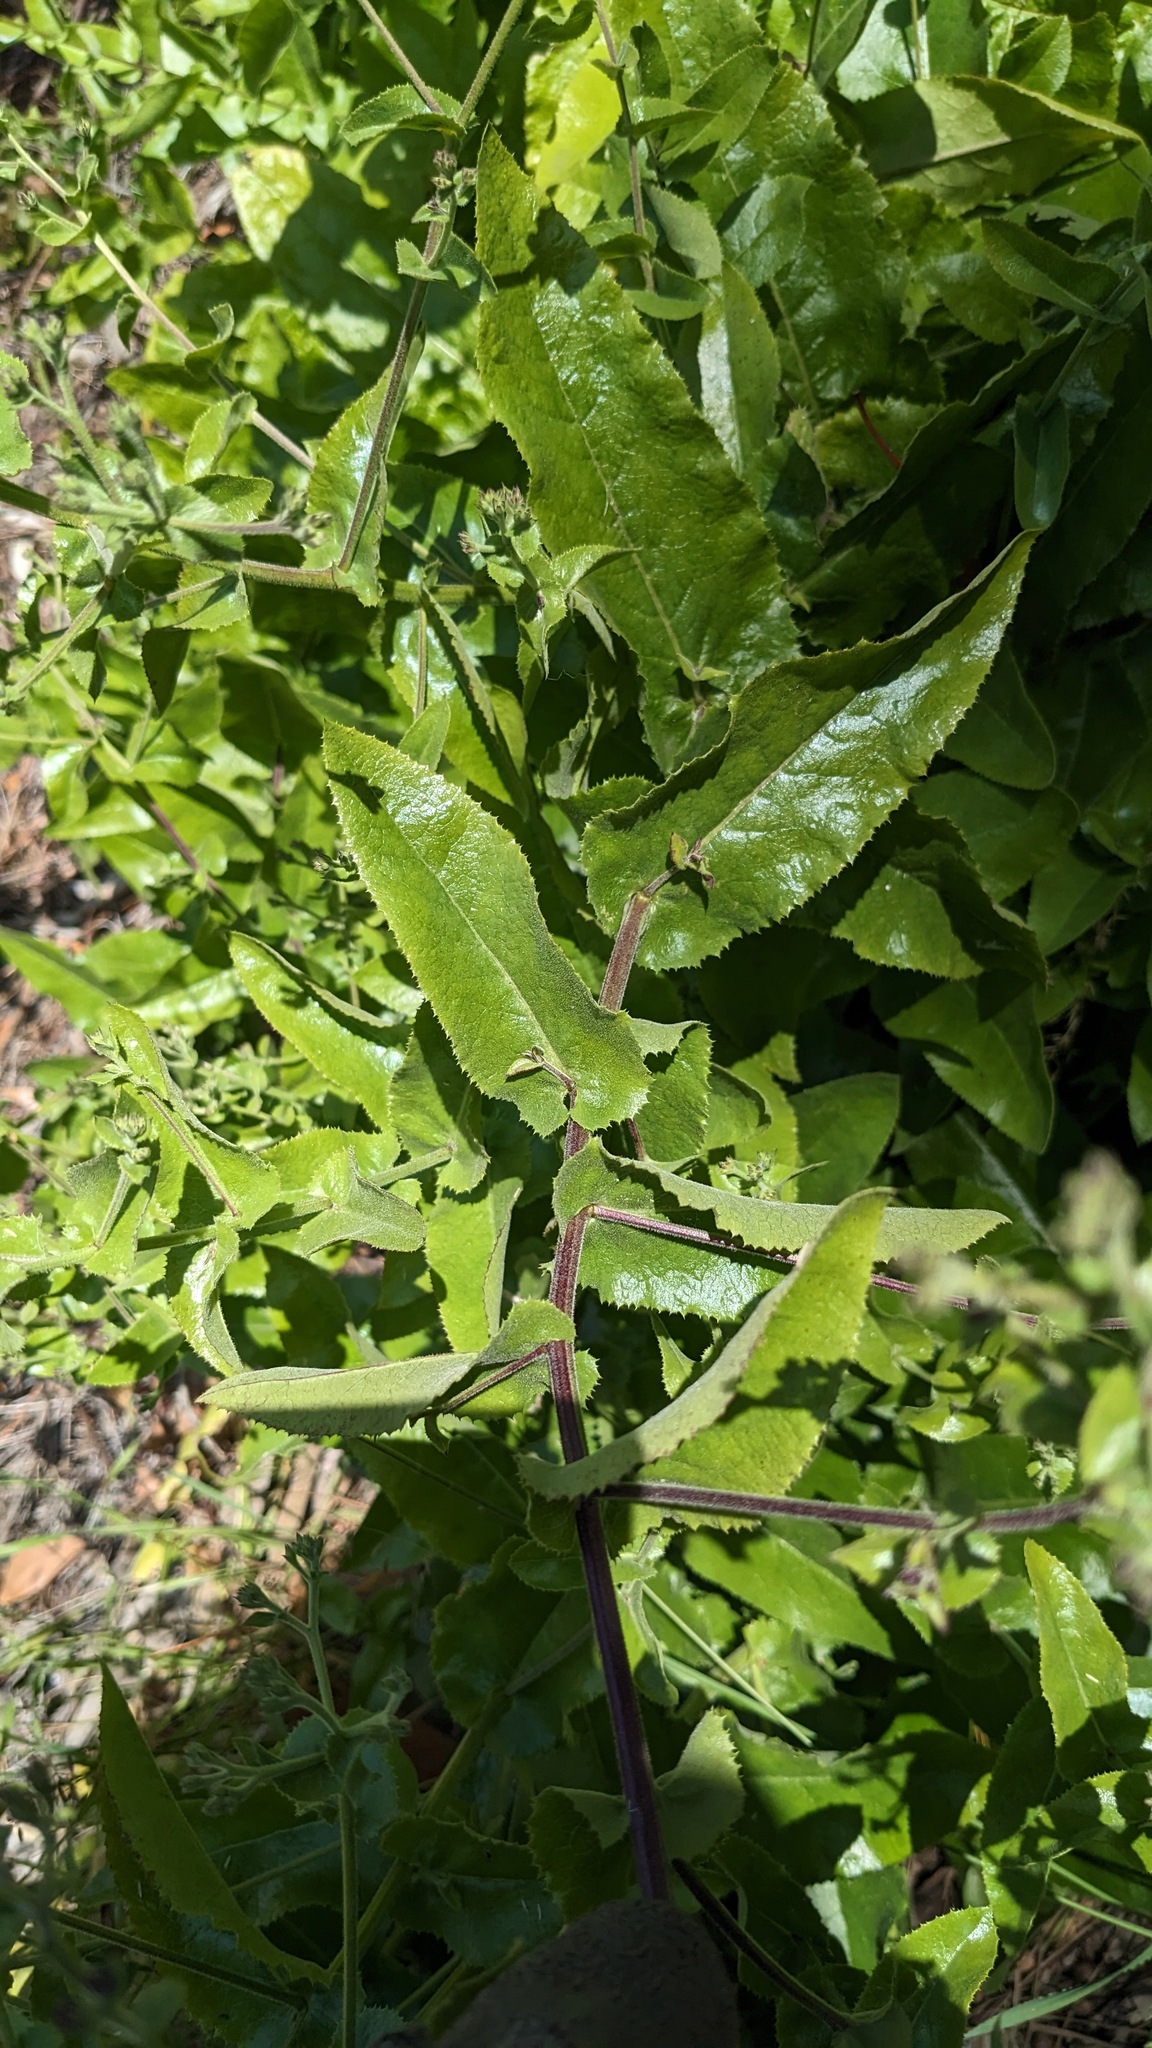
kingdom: Plantae
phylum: Tracheophyta
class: Magnoliopsida
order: Asterales
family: Asteraceae
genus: Acourtia
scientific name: Acourtia microcephala
